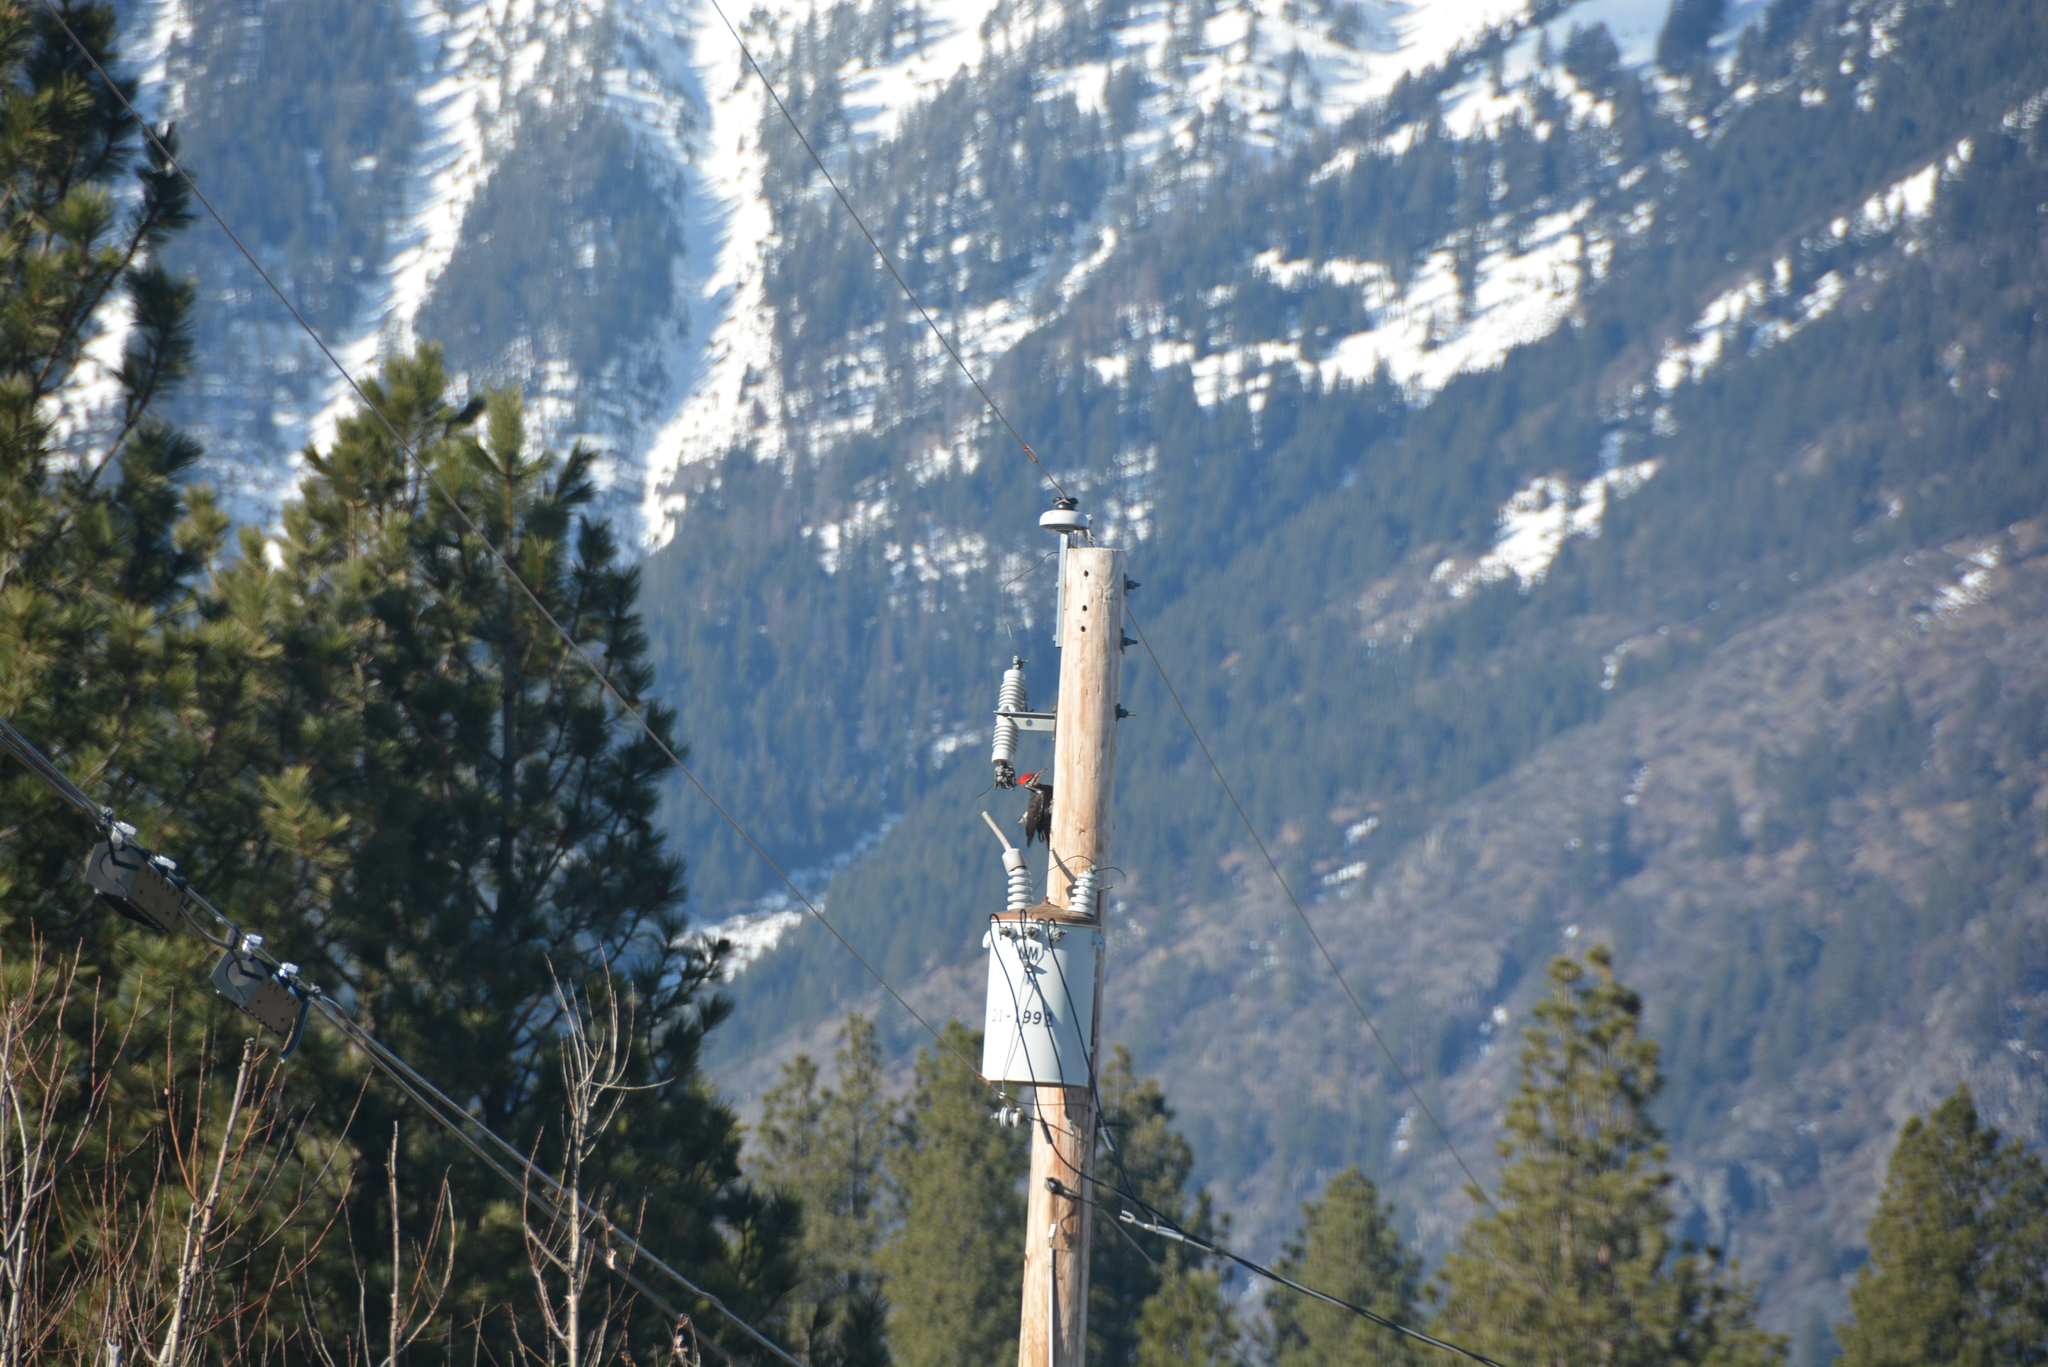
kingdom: Animalia
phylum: Chordata
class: Aves
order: Piciformes
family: Picidae
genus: Dryocopus
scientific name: Dryocopus pileatus
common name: Pileated woodpecker
